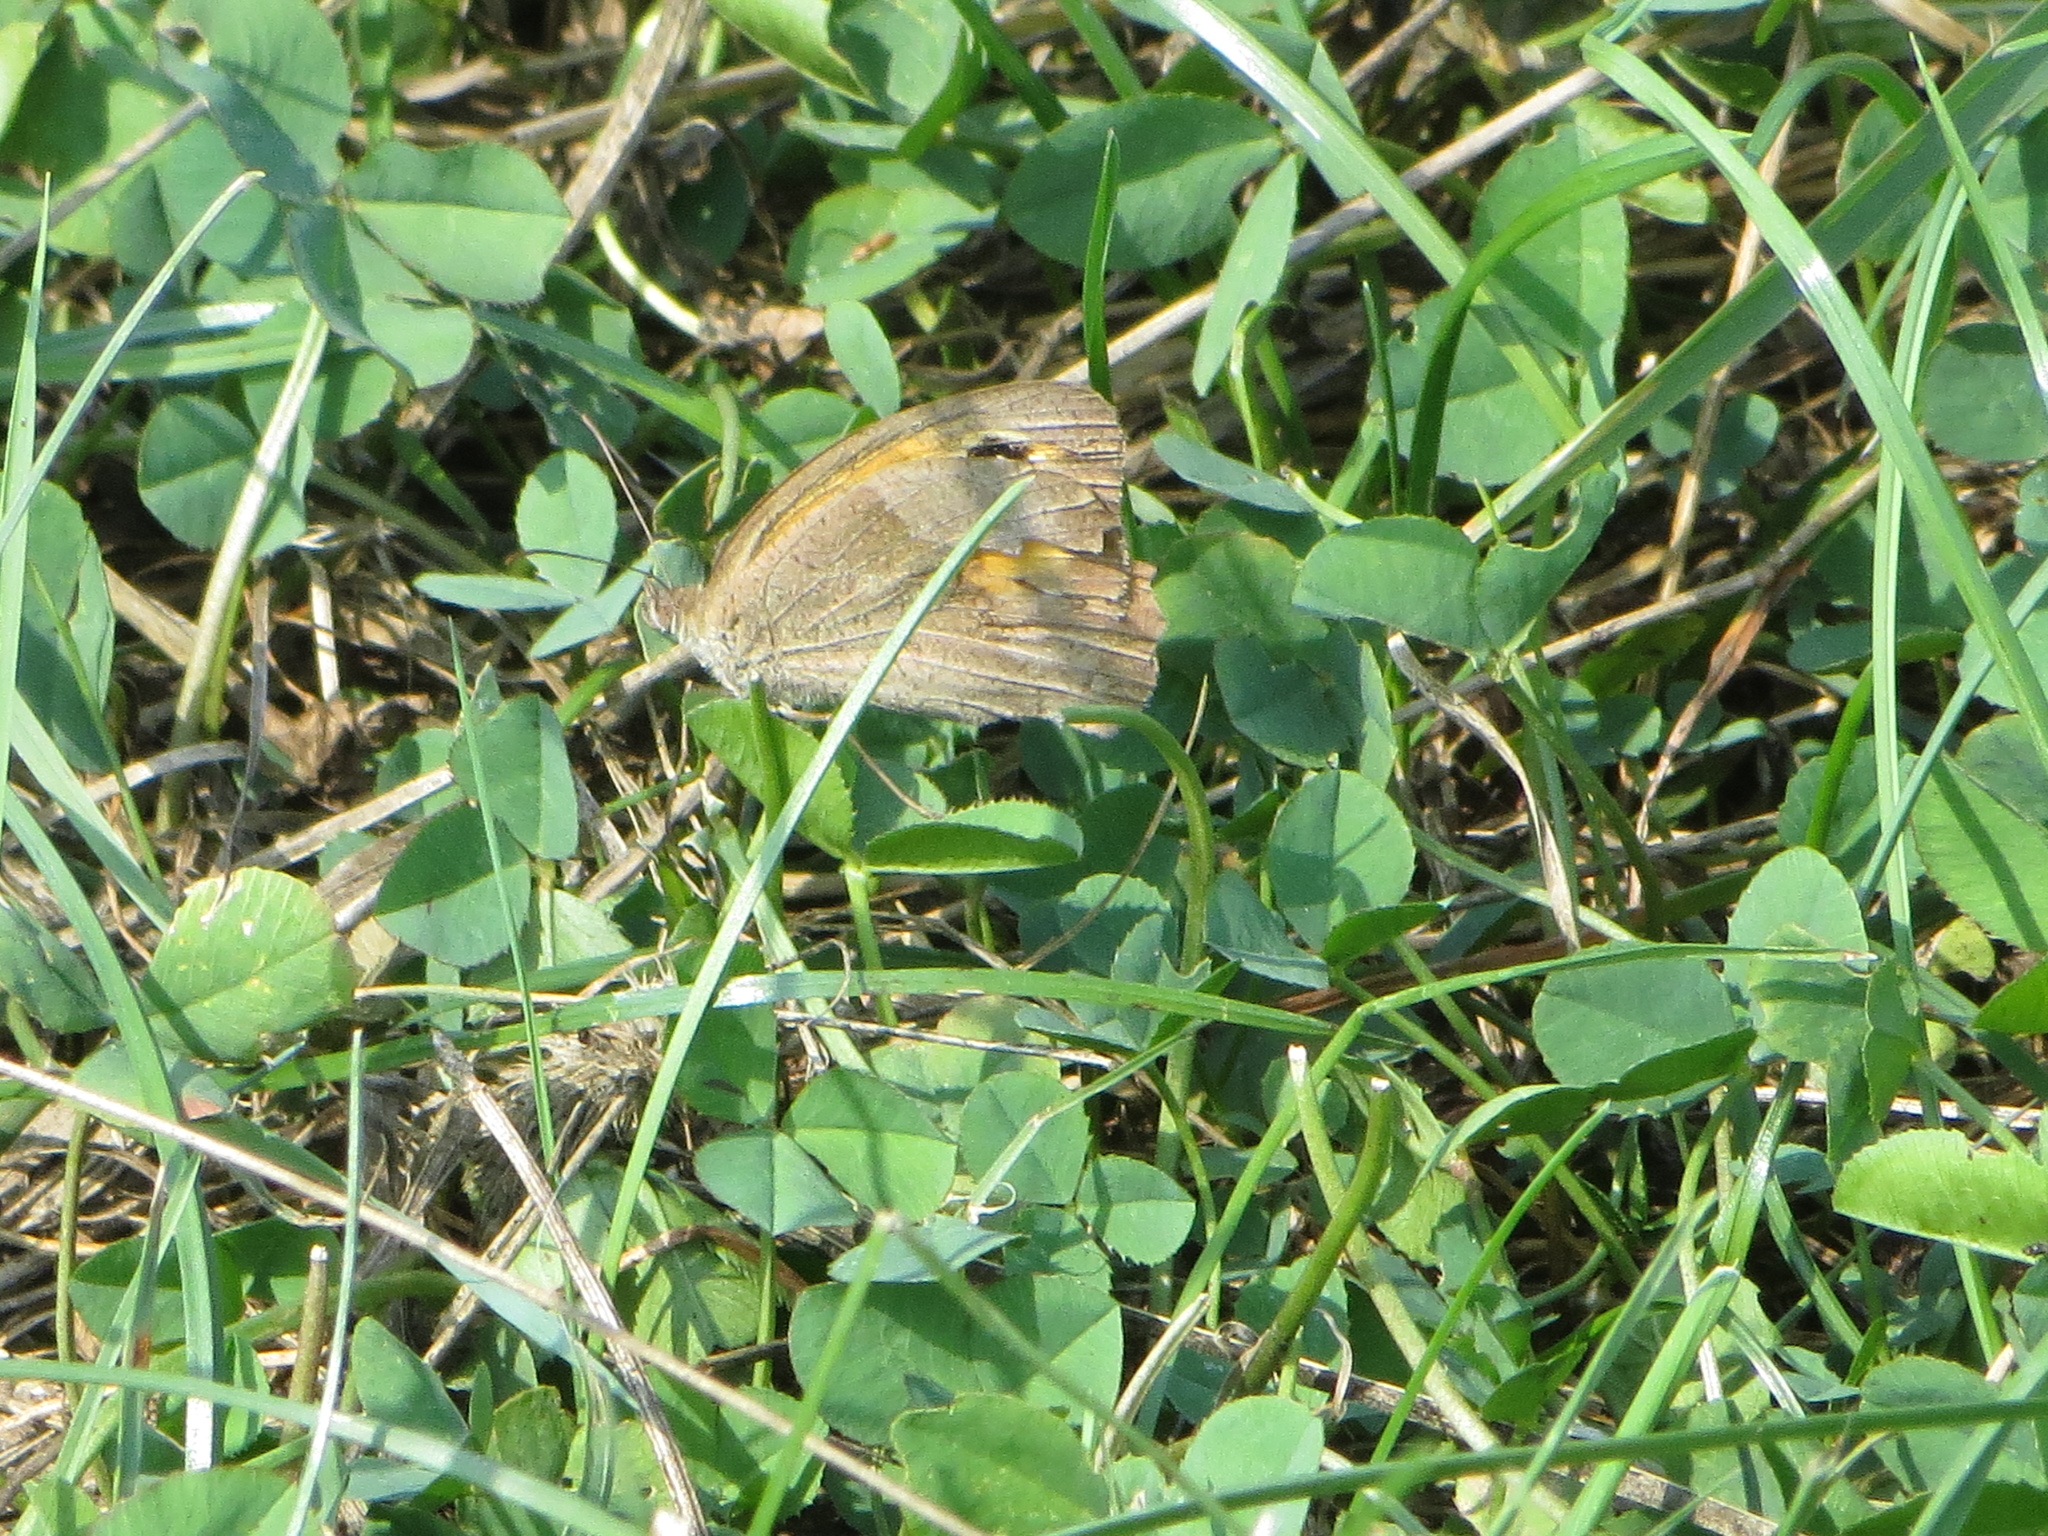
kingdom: Animalia
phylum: Arthropoda
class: Insecta
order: Lepidoptera
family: Nymphalidae
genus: Maniola
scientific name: Maniola jurtina
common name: Meadow brown
